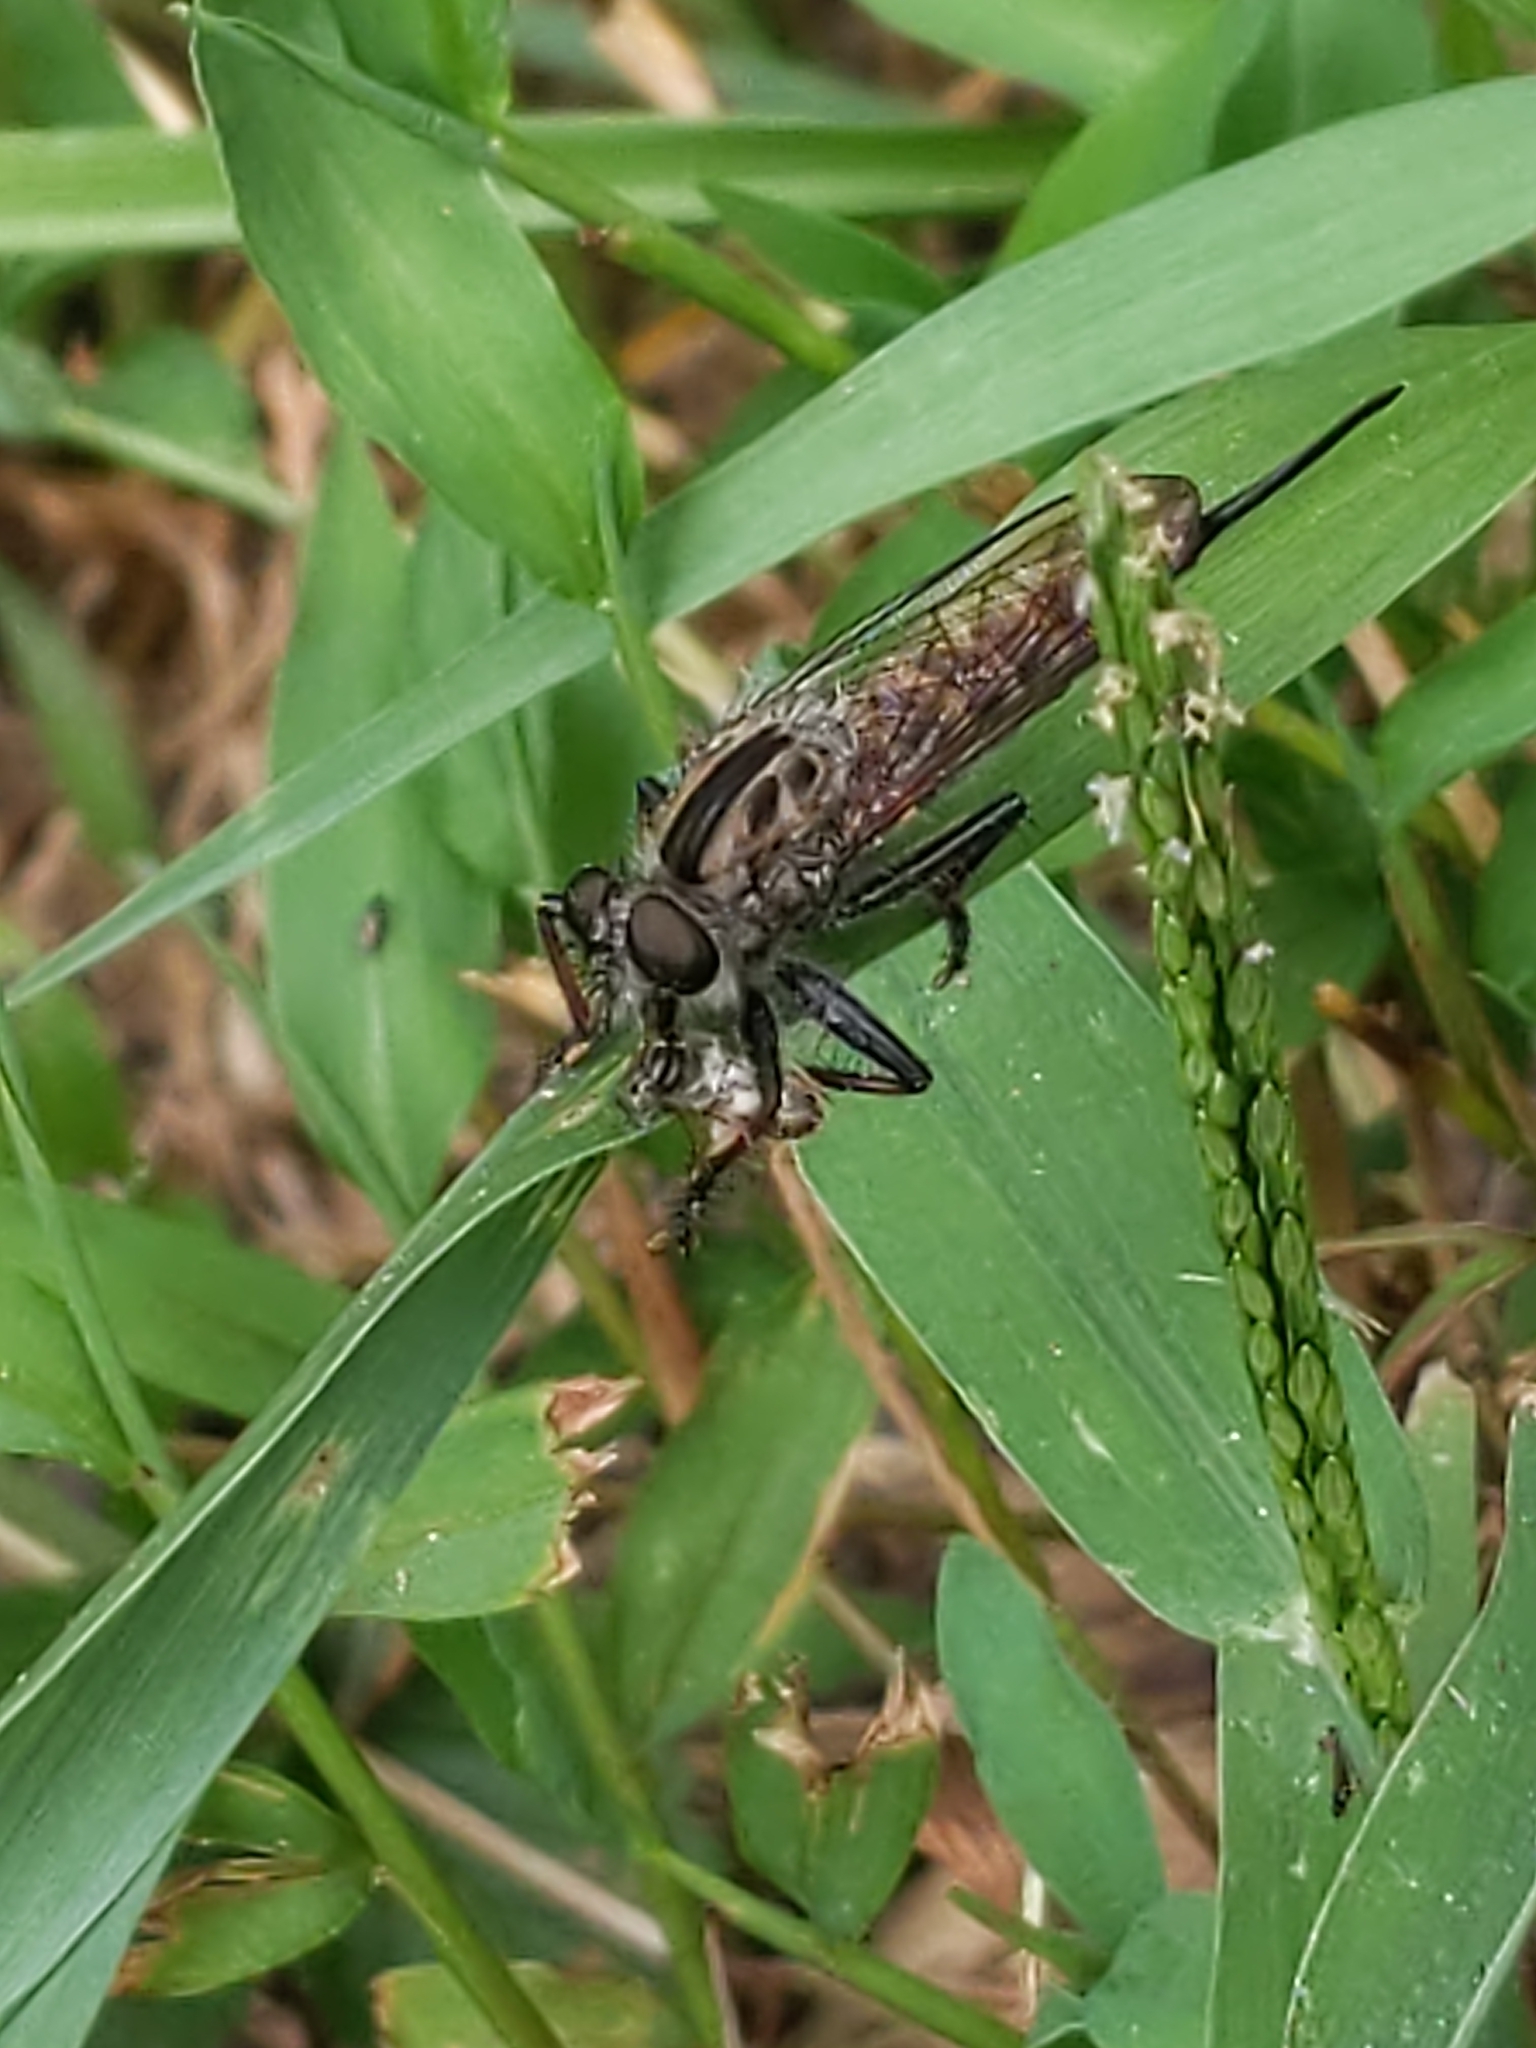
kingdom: Animalia
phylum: Arthropoda
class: Insecta
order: Diptera
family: Asilidae
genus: Efferia
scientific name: Efferia
